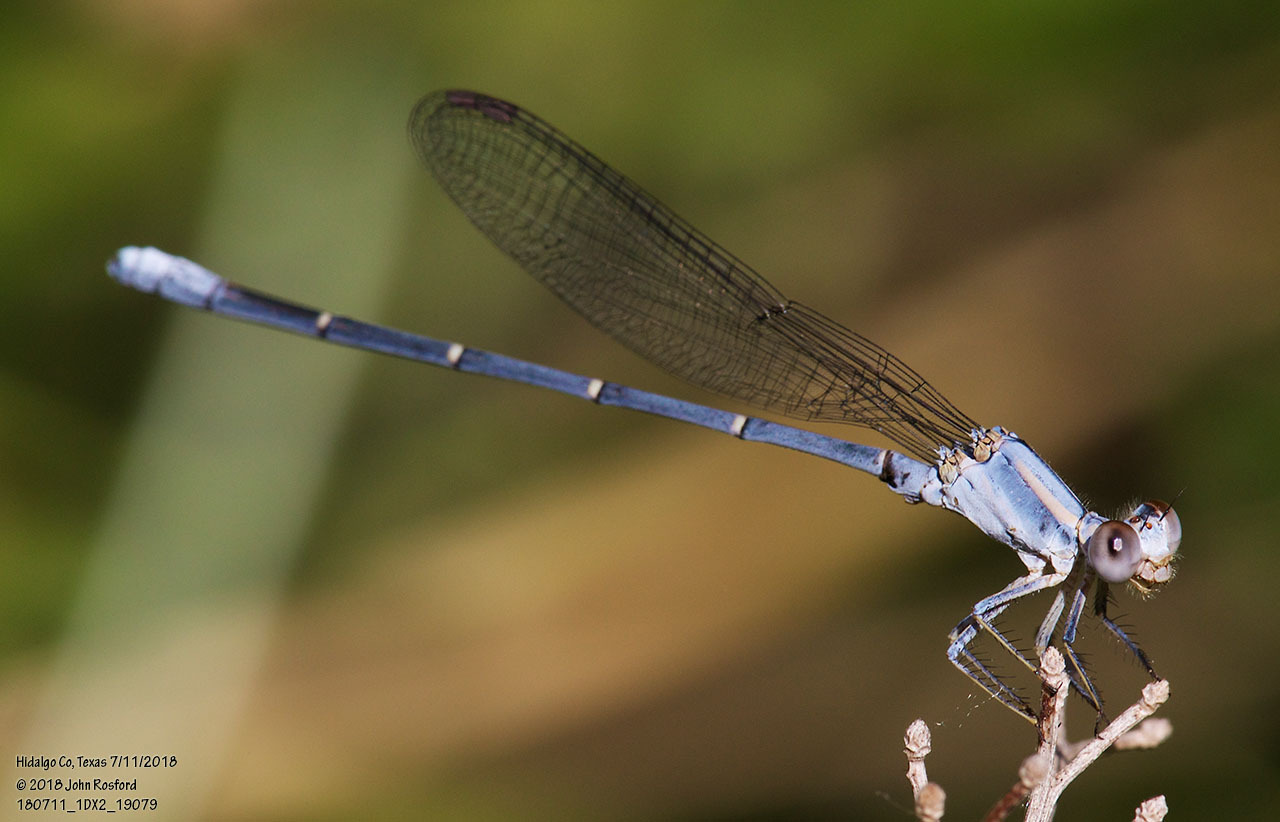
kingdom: Animalia
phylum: Arthropoda
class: Insecta
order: Odonata
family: Coenagrionidae
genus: Argia
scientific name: Argia moesta
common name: Powdered dancer
